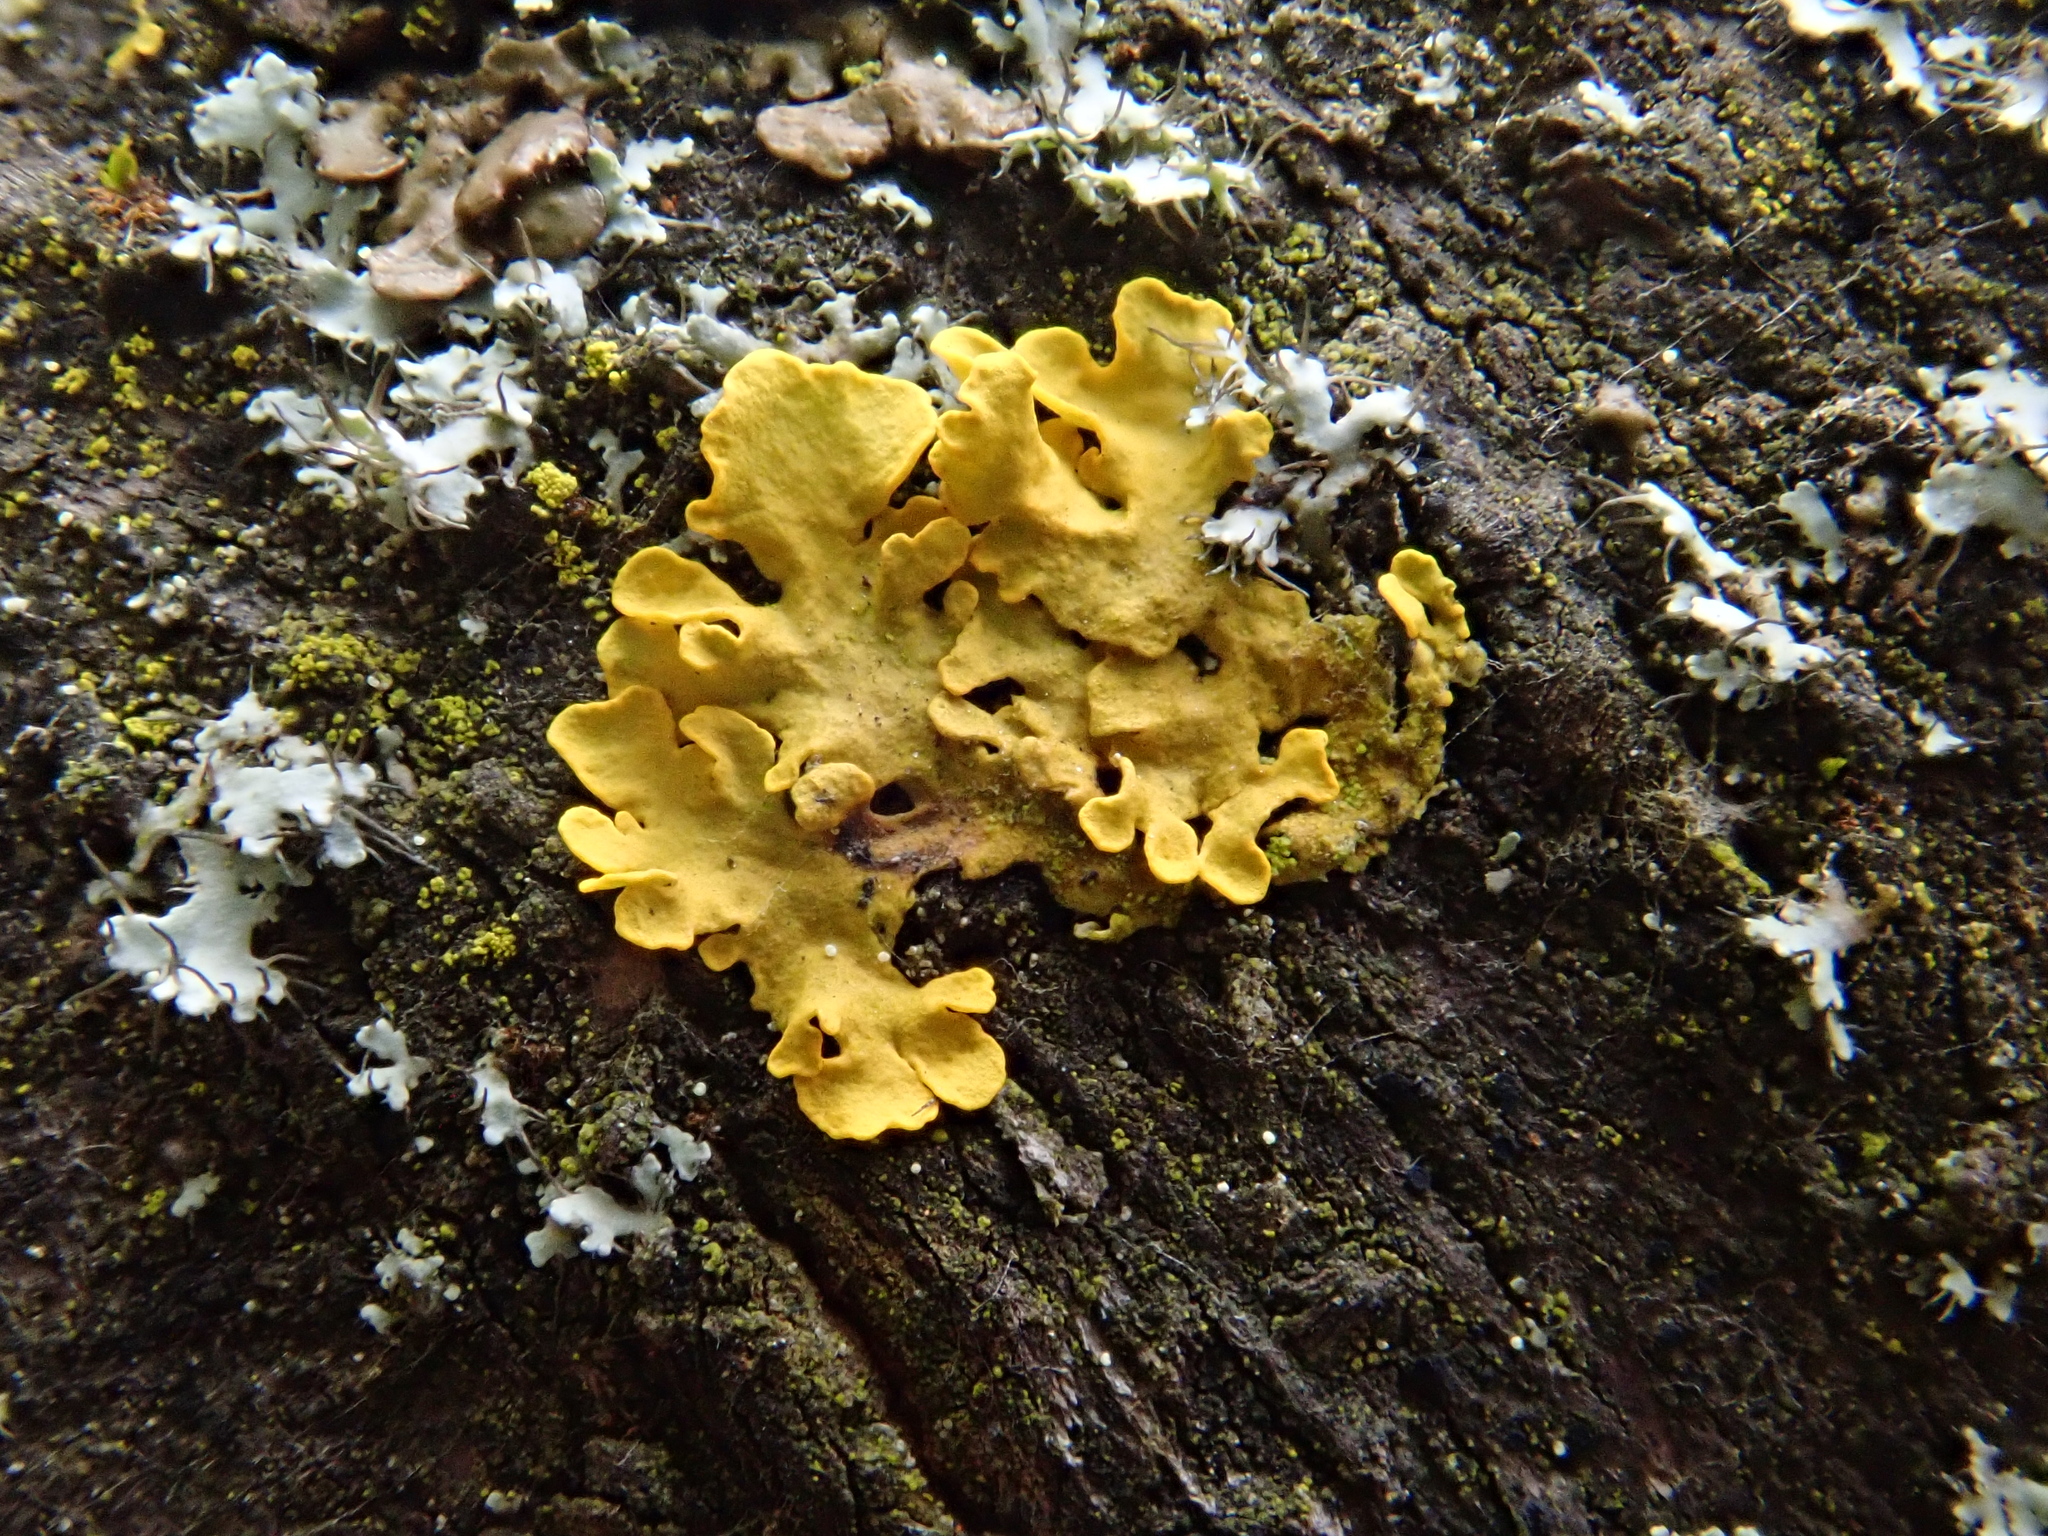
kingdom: Fungi
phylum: Ascomycota
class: Lecanoromycetes
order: Teloschistales
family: Teloschistaceae
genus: Xanthoria
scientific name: Xanthoria parietina
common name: Common orange lichen
